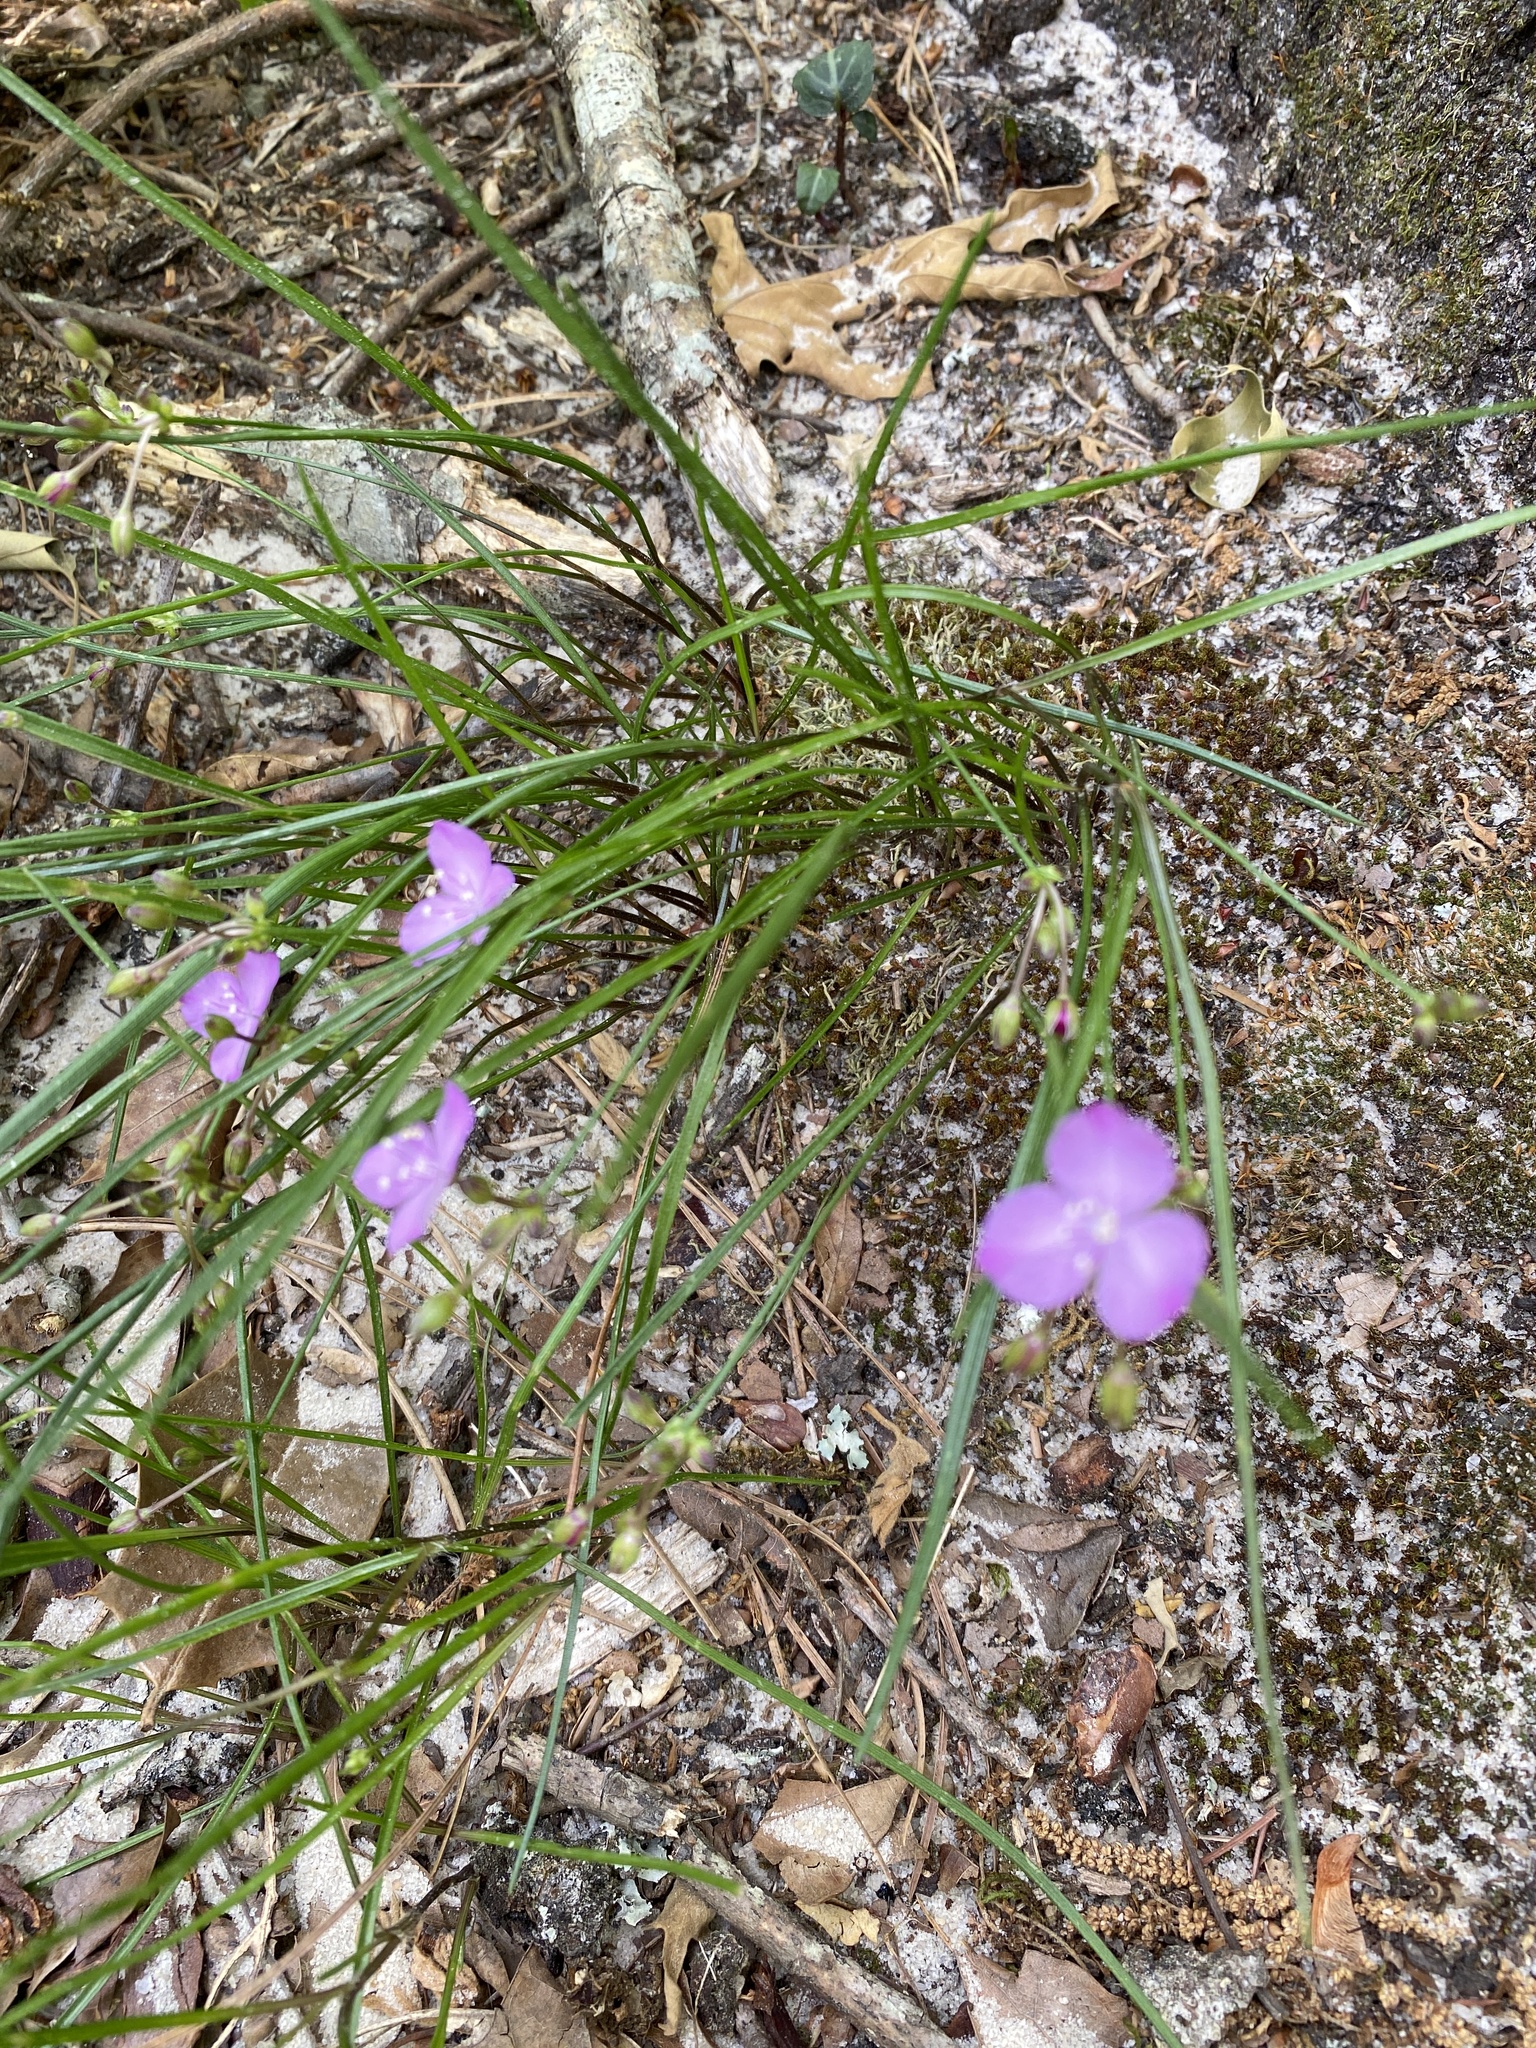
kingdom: Plantae
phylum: Tracheophyta
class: Liliopsida
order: Commelinales
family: Commelinaceae
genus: Callisia
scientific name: Callisia graminea
